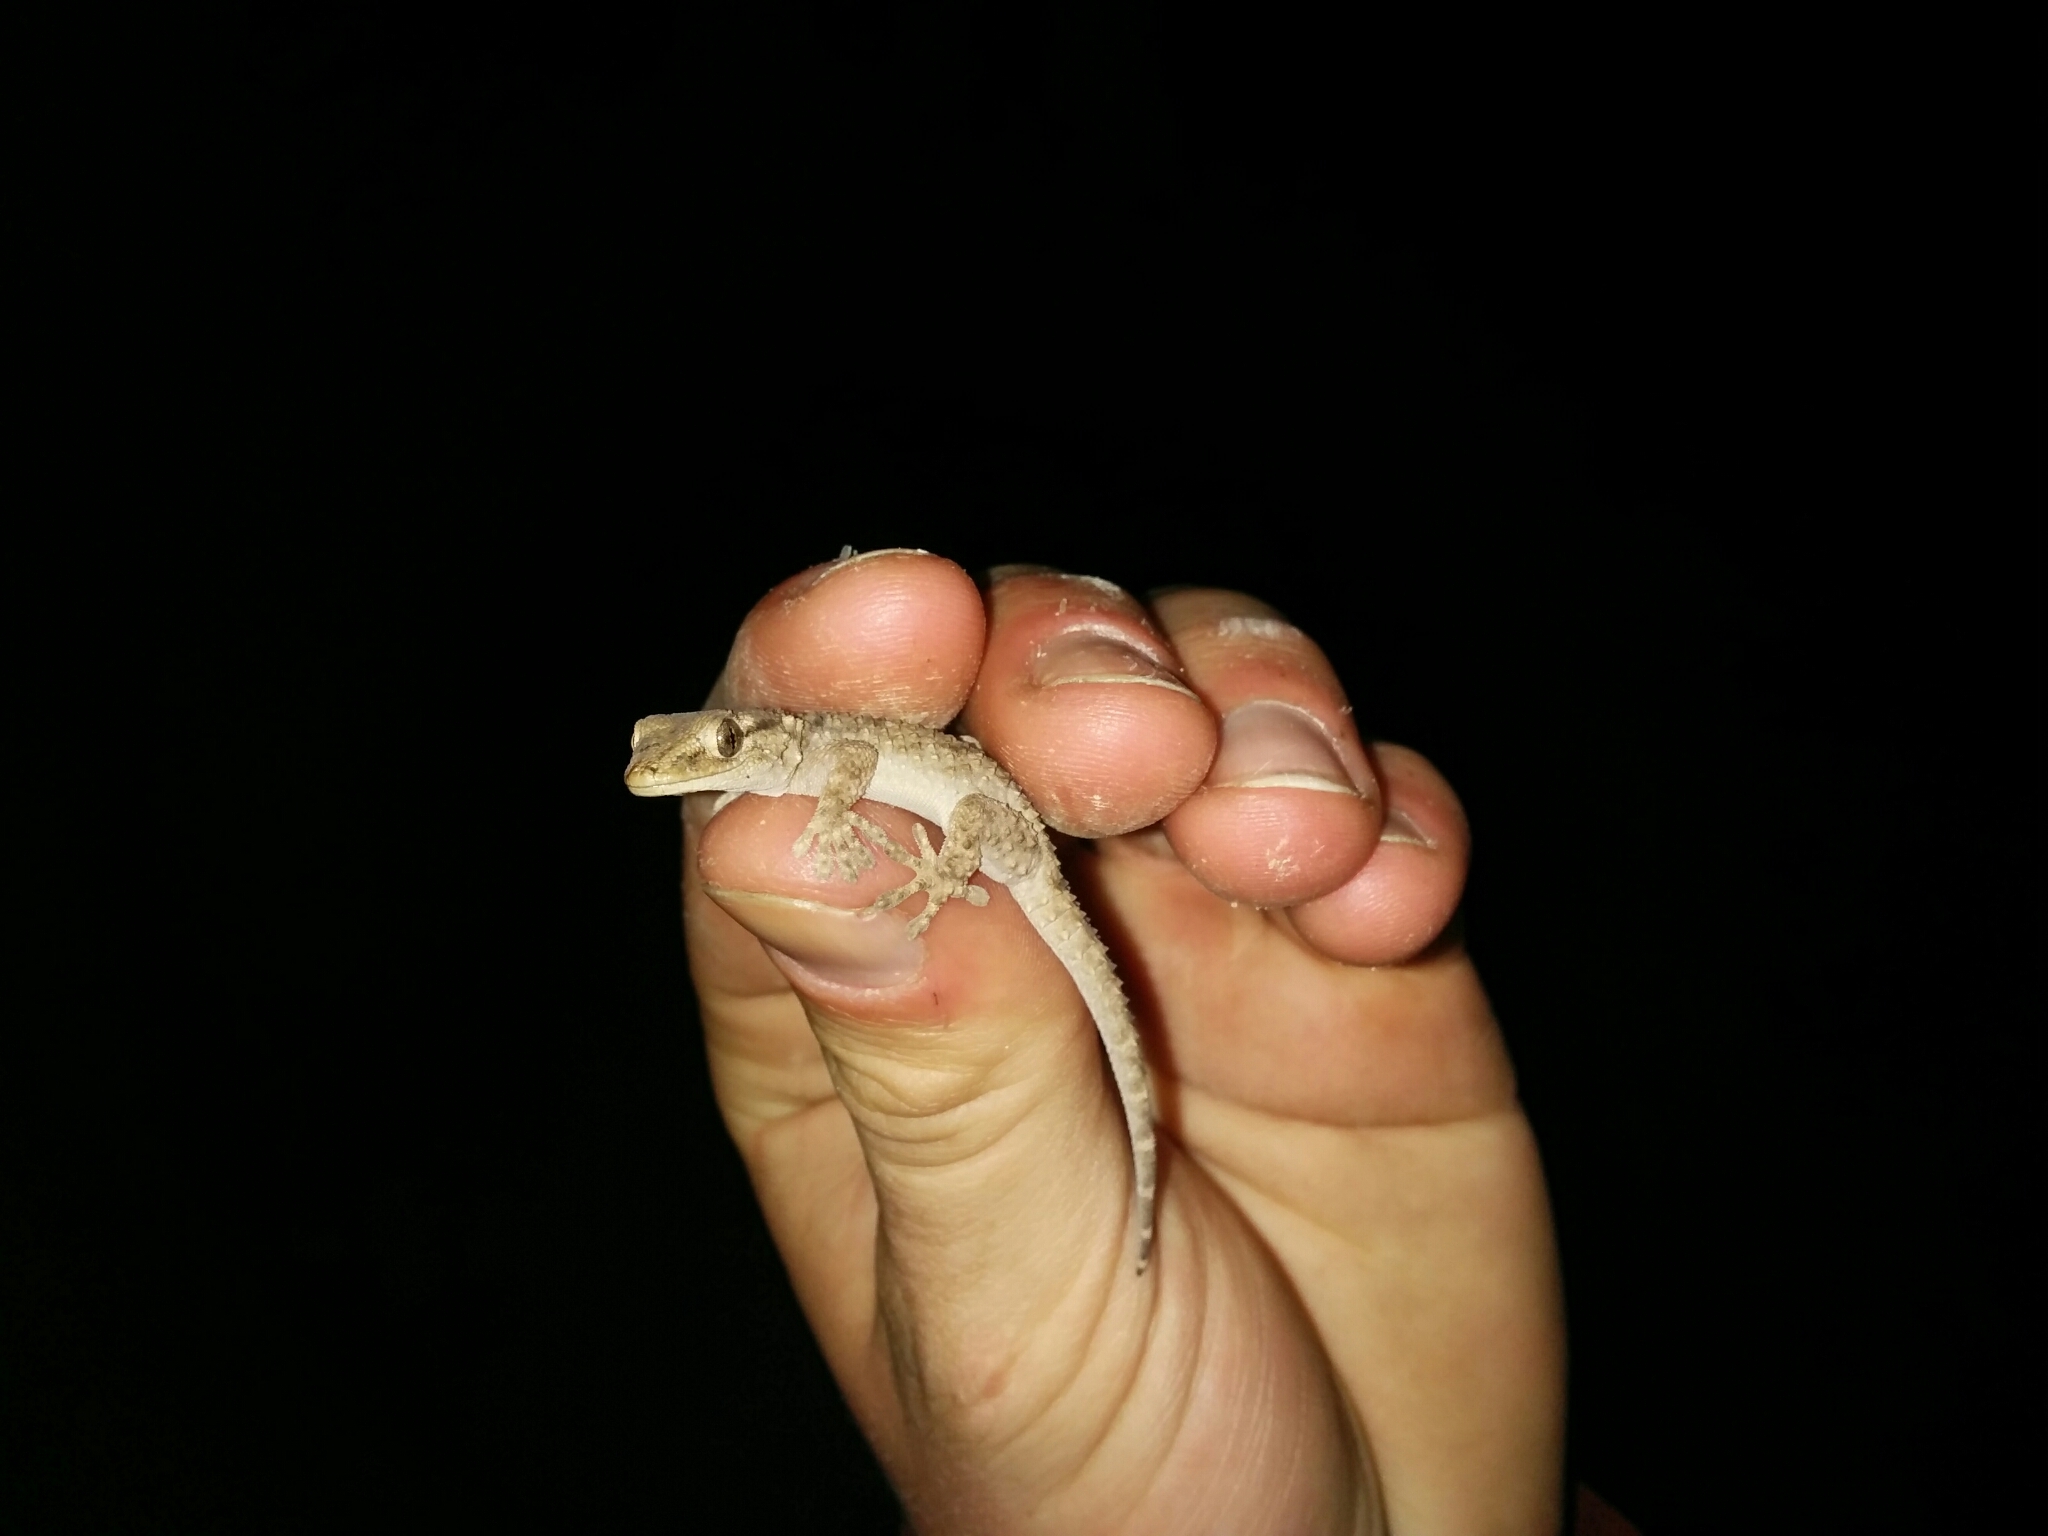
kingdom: Animalia
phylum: Chordata
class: Squamata
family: Phyllodactylidae
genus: Tarentola
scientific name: Tarentola mauritanica
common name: Moorish gecko
